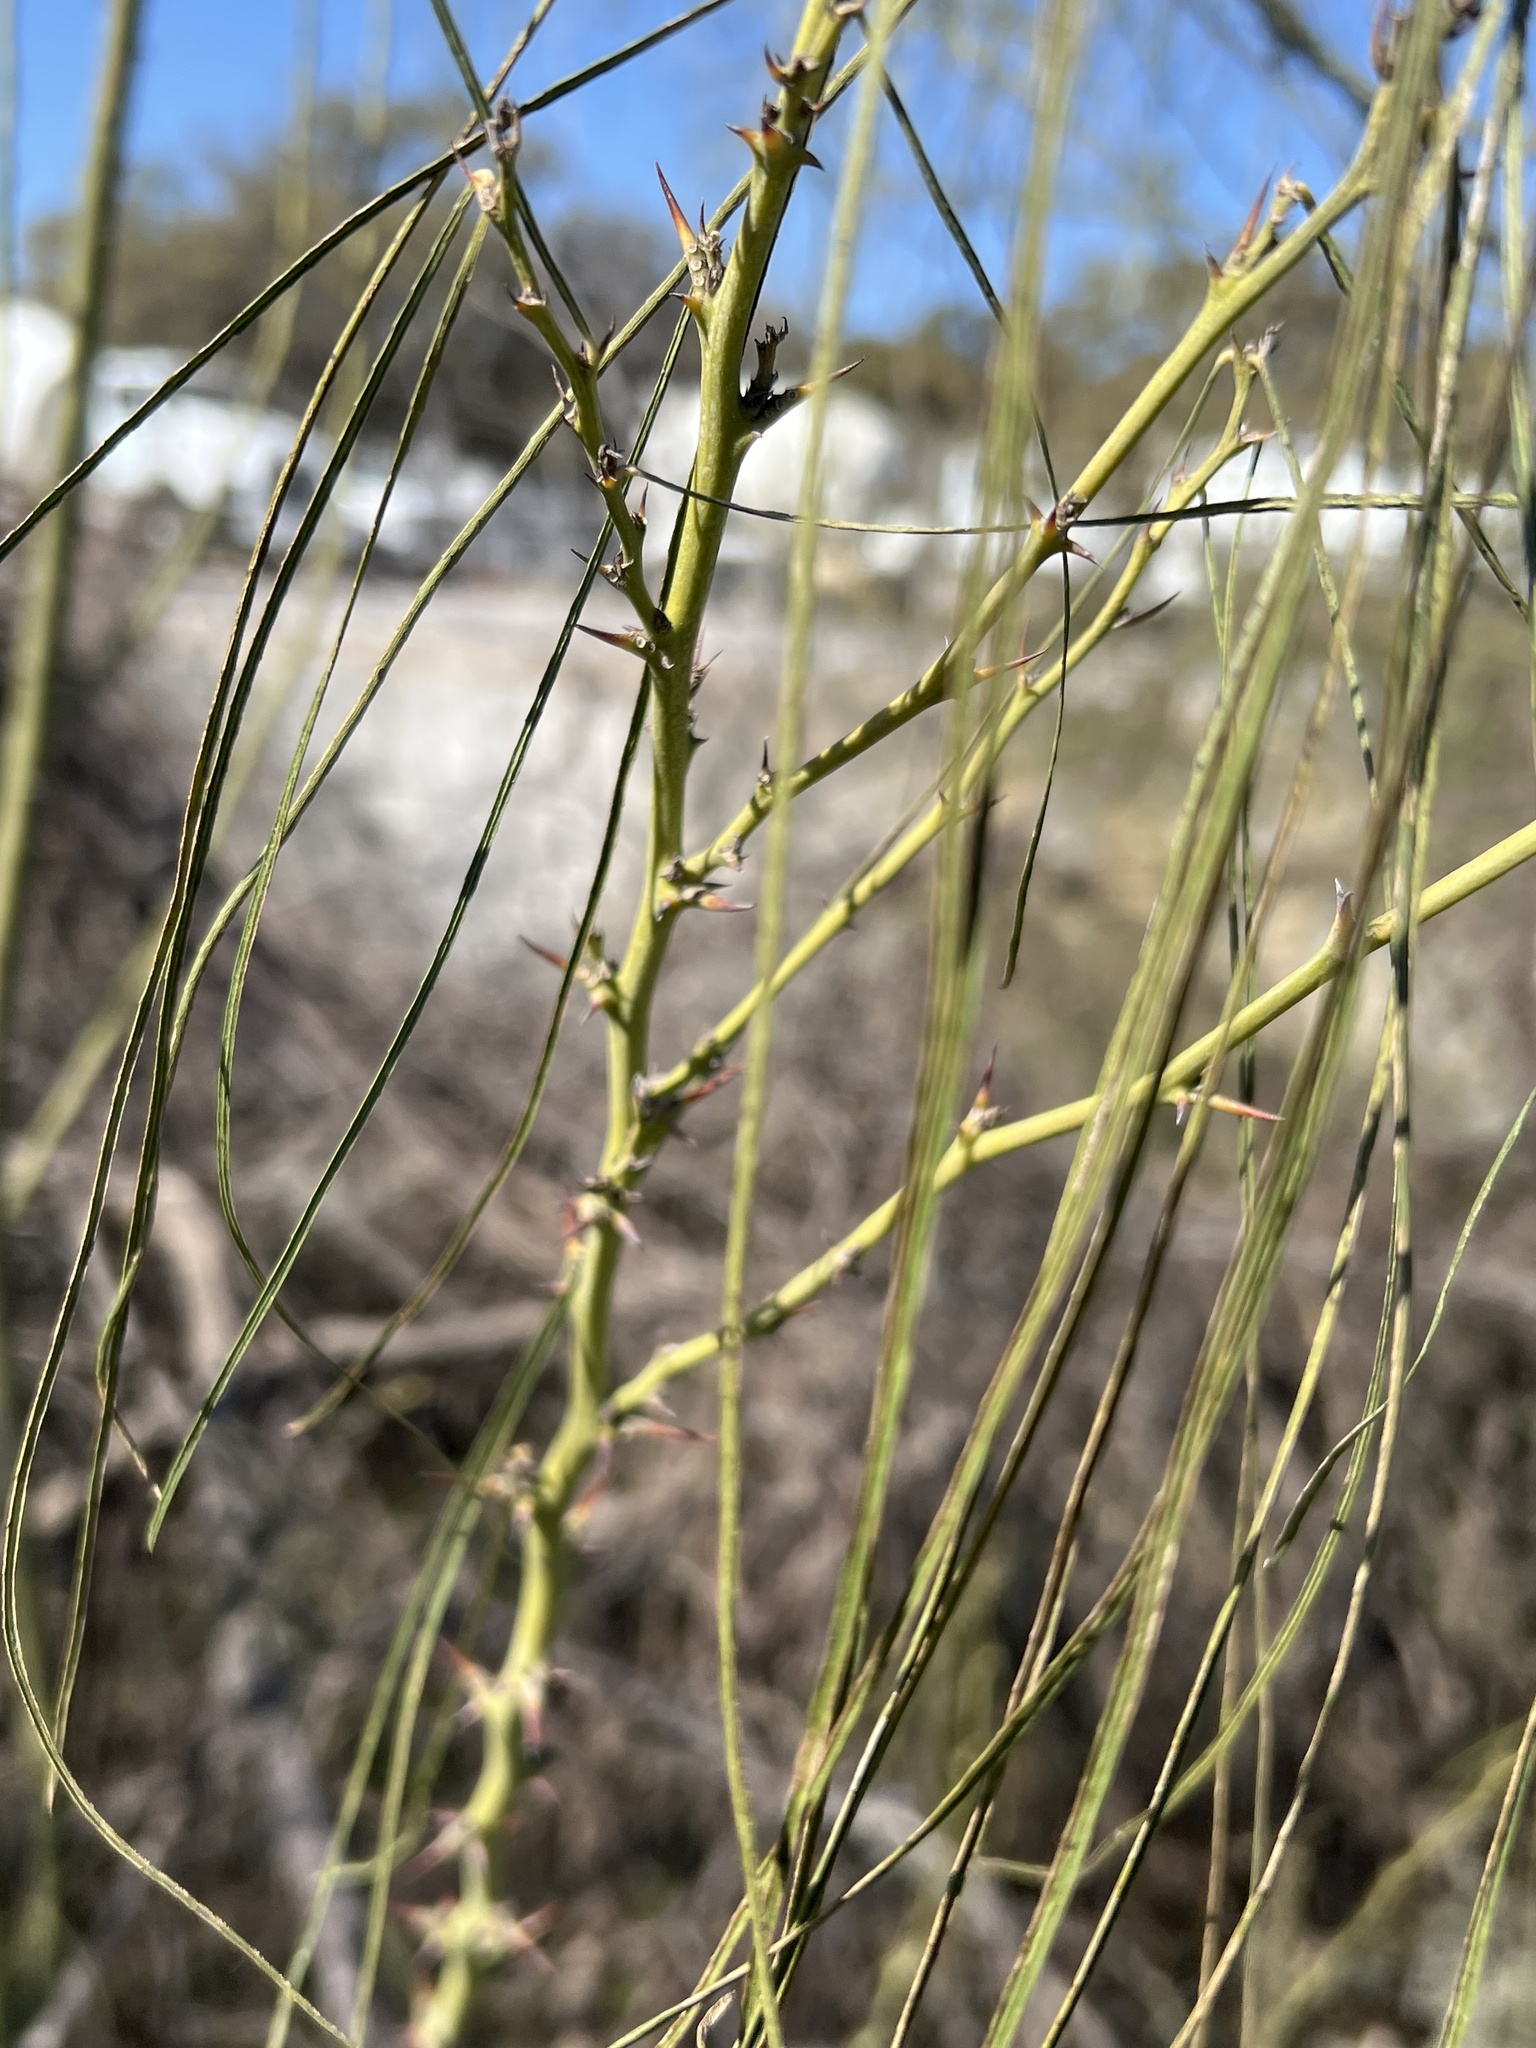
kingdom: Plantae
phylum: Tracheophyta
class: Magnoliopsida
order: Fabales
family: Fabaceae
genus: Parkinsonia
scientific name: Parkinsonia aculeata
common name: Jerusalem thorn
